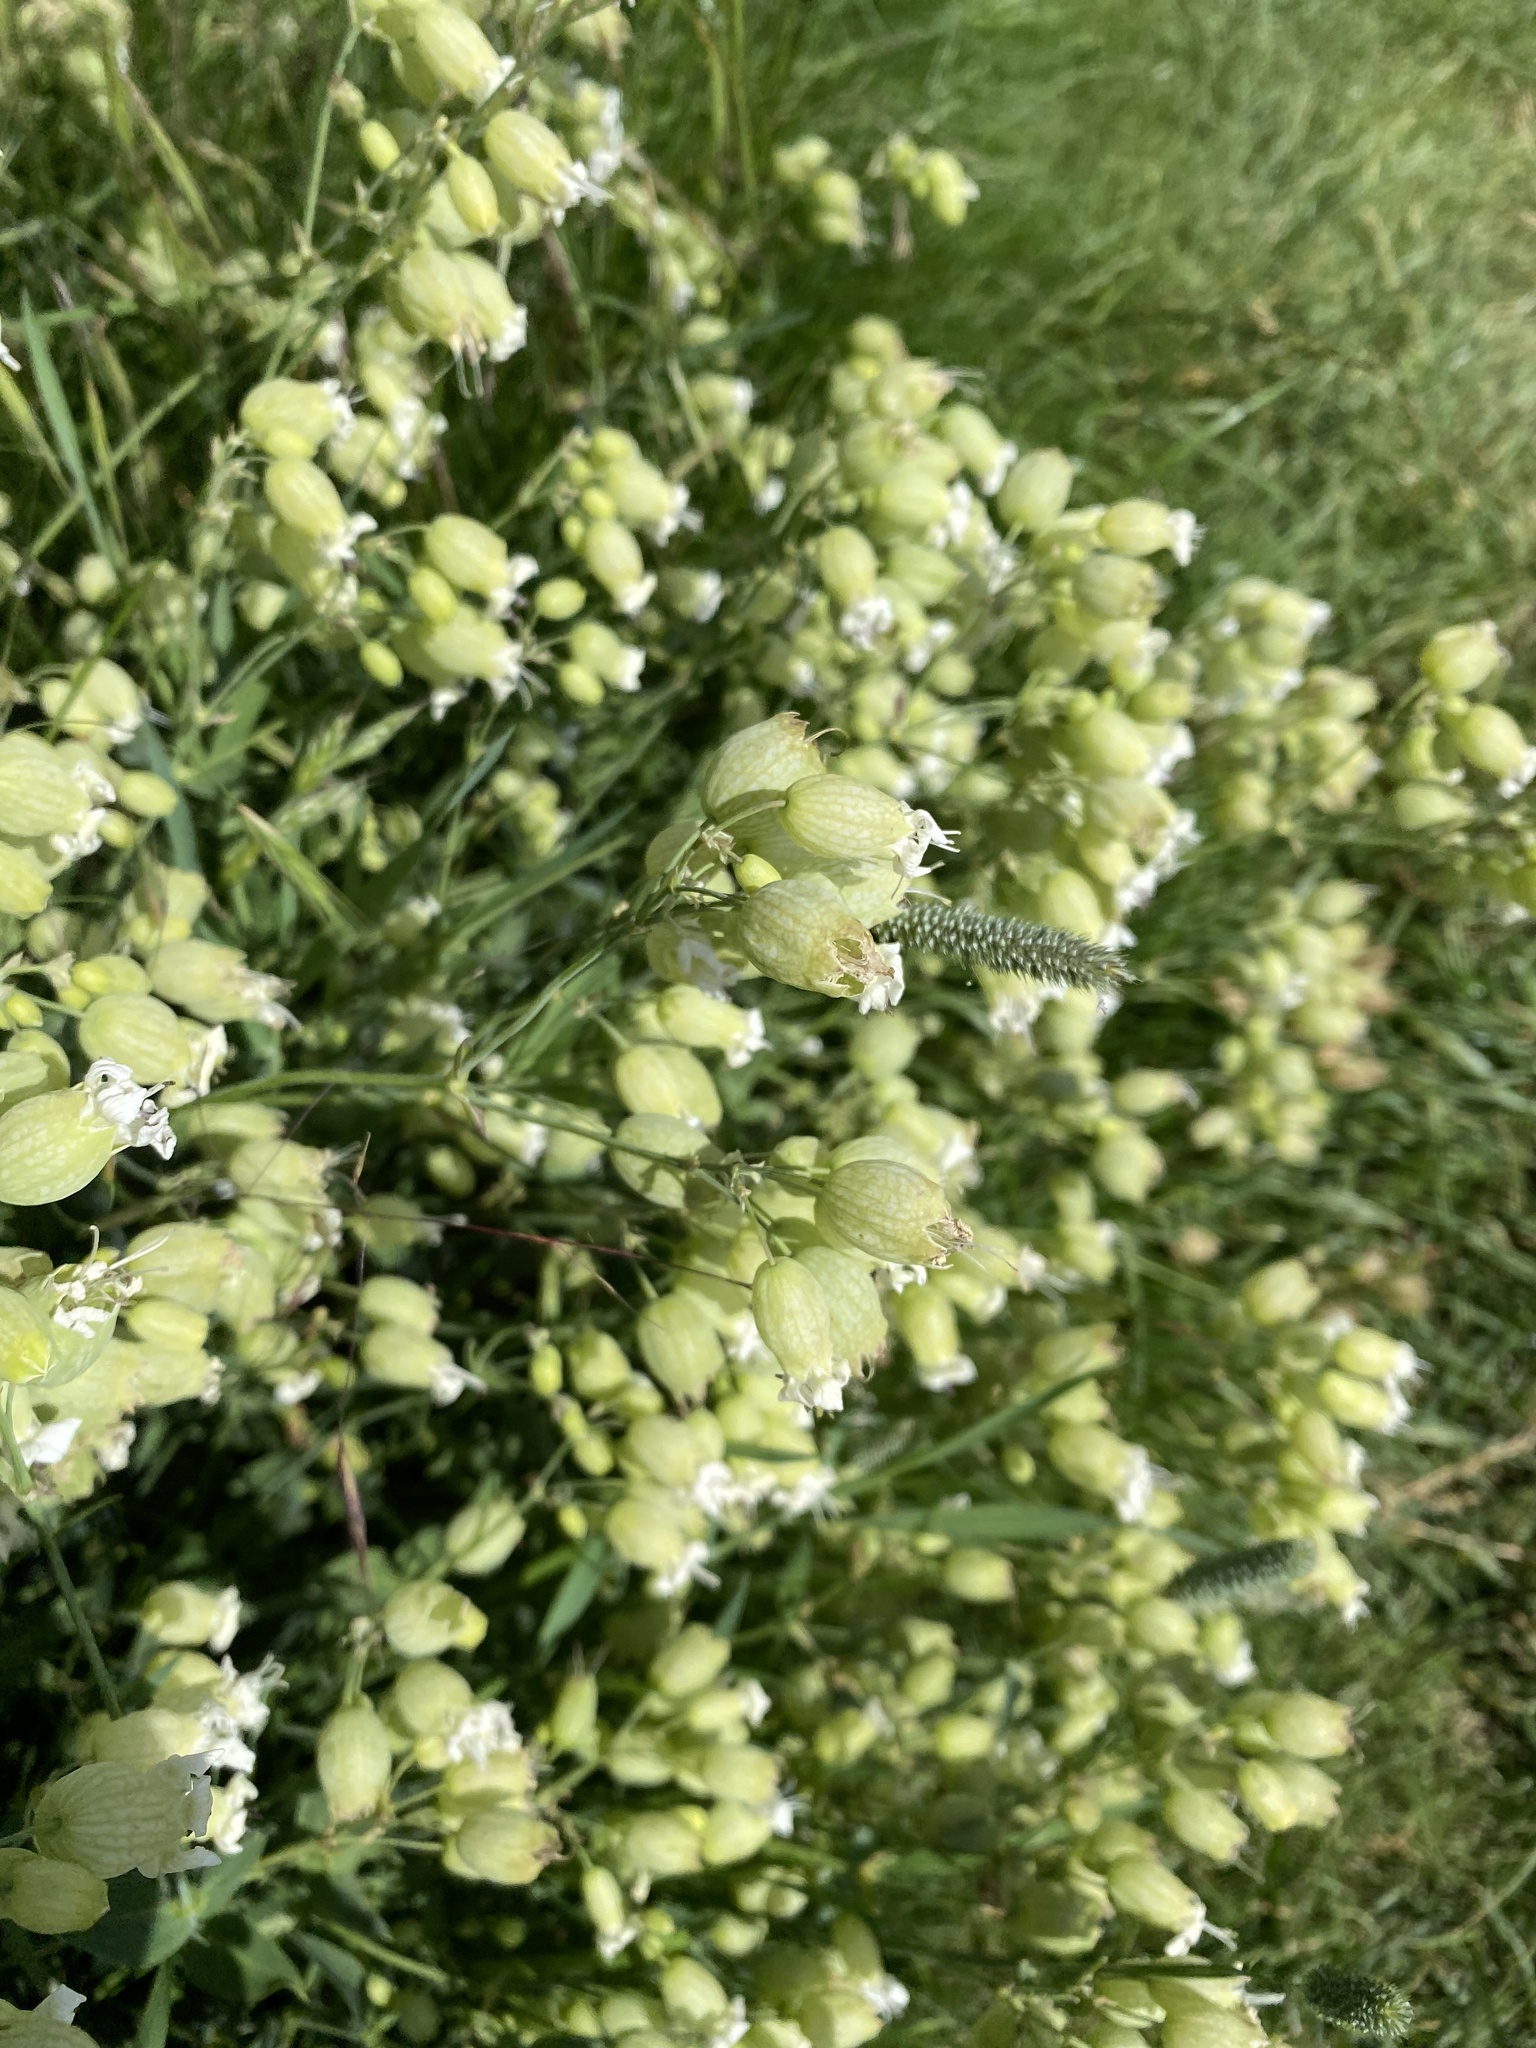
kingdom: Plantae
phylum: Tracheophyta
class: Magnoliopsida
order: Caryophyllales
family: Caryophyllaceae
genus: Silene
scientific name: Silene vulgaris
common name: Bladder campion
